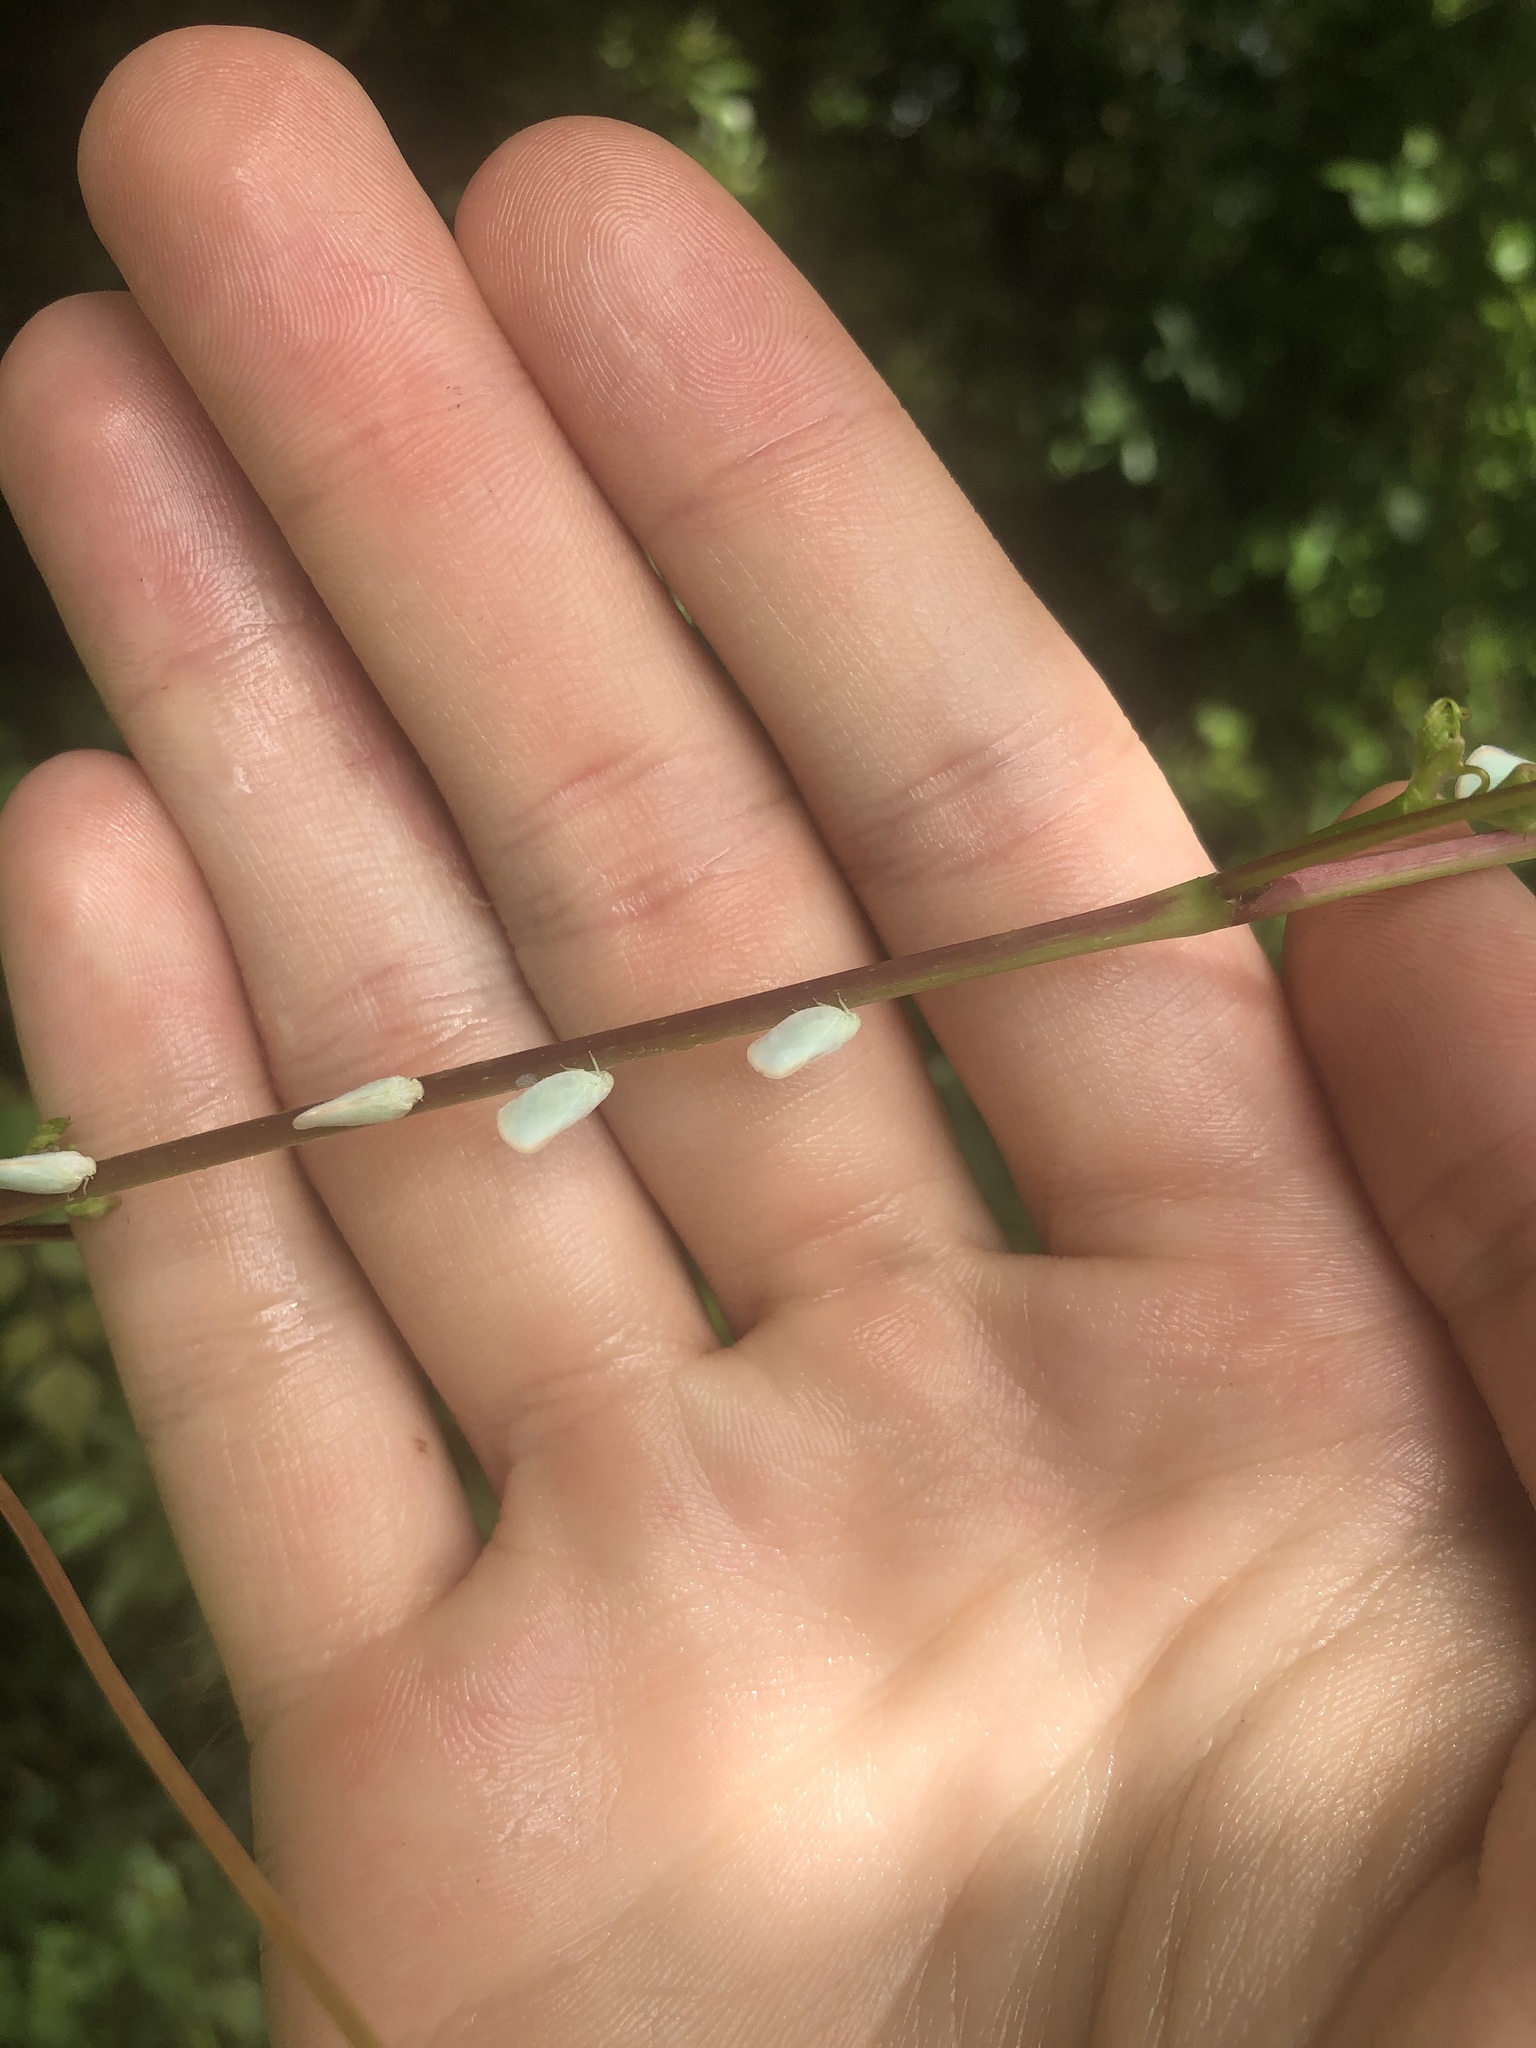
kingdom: Animalia
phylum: Arthropoda
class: Insecta
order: Hemiptera
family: Flatidae
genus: Ormenoides
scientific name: Ormenoides venusta
